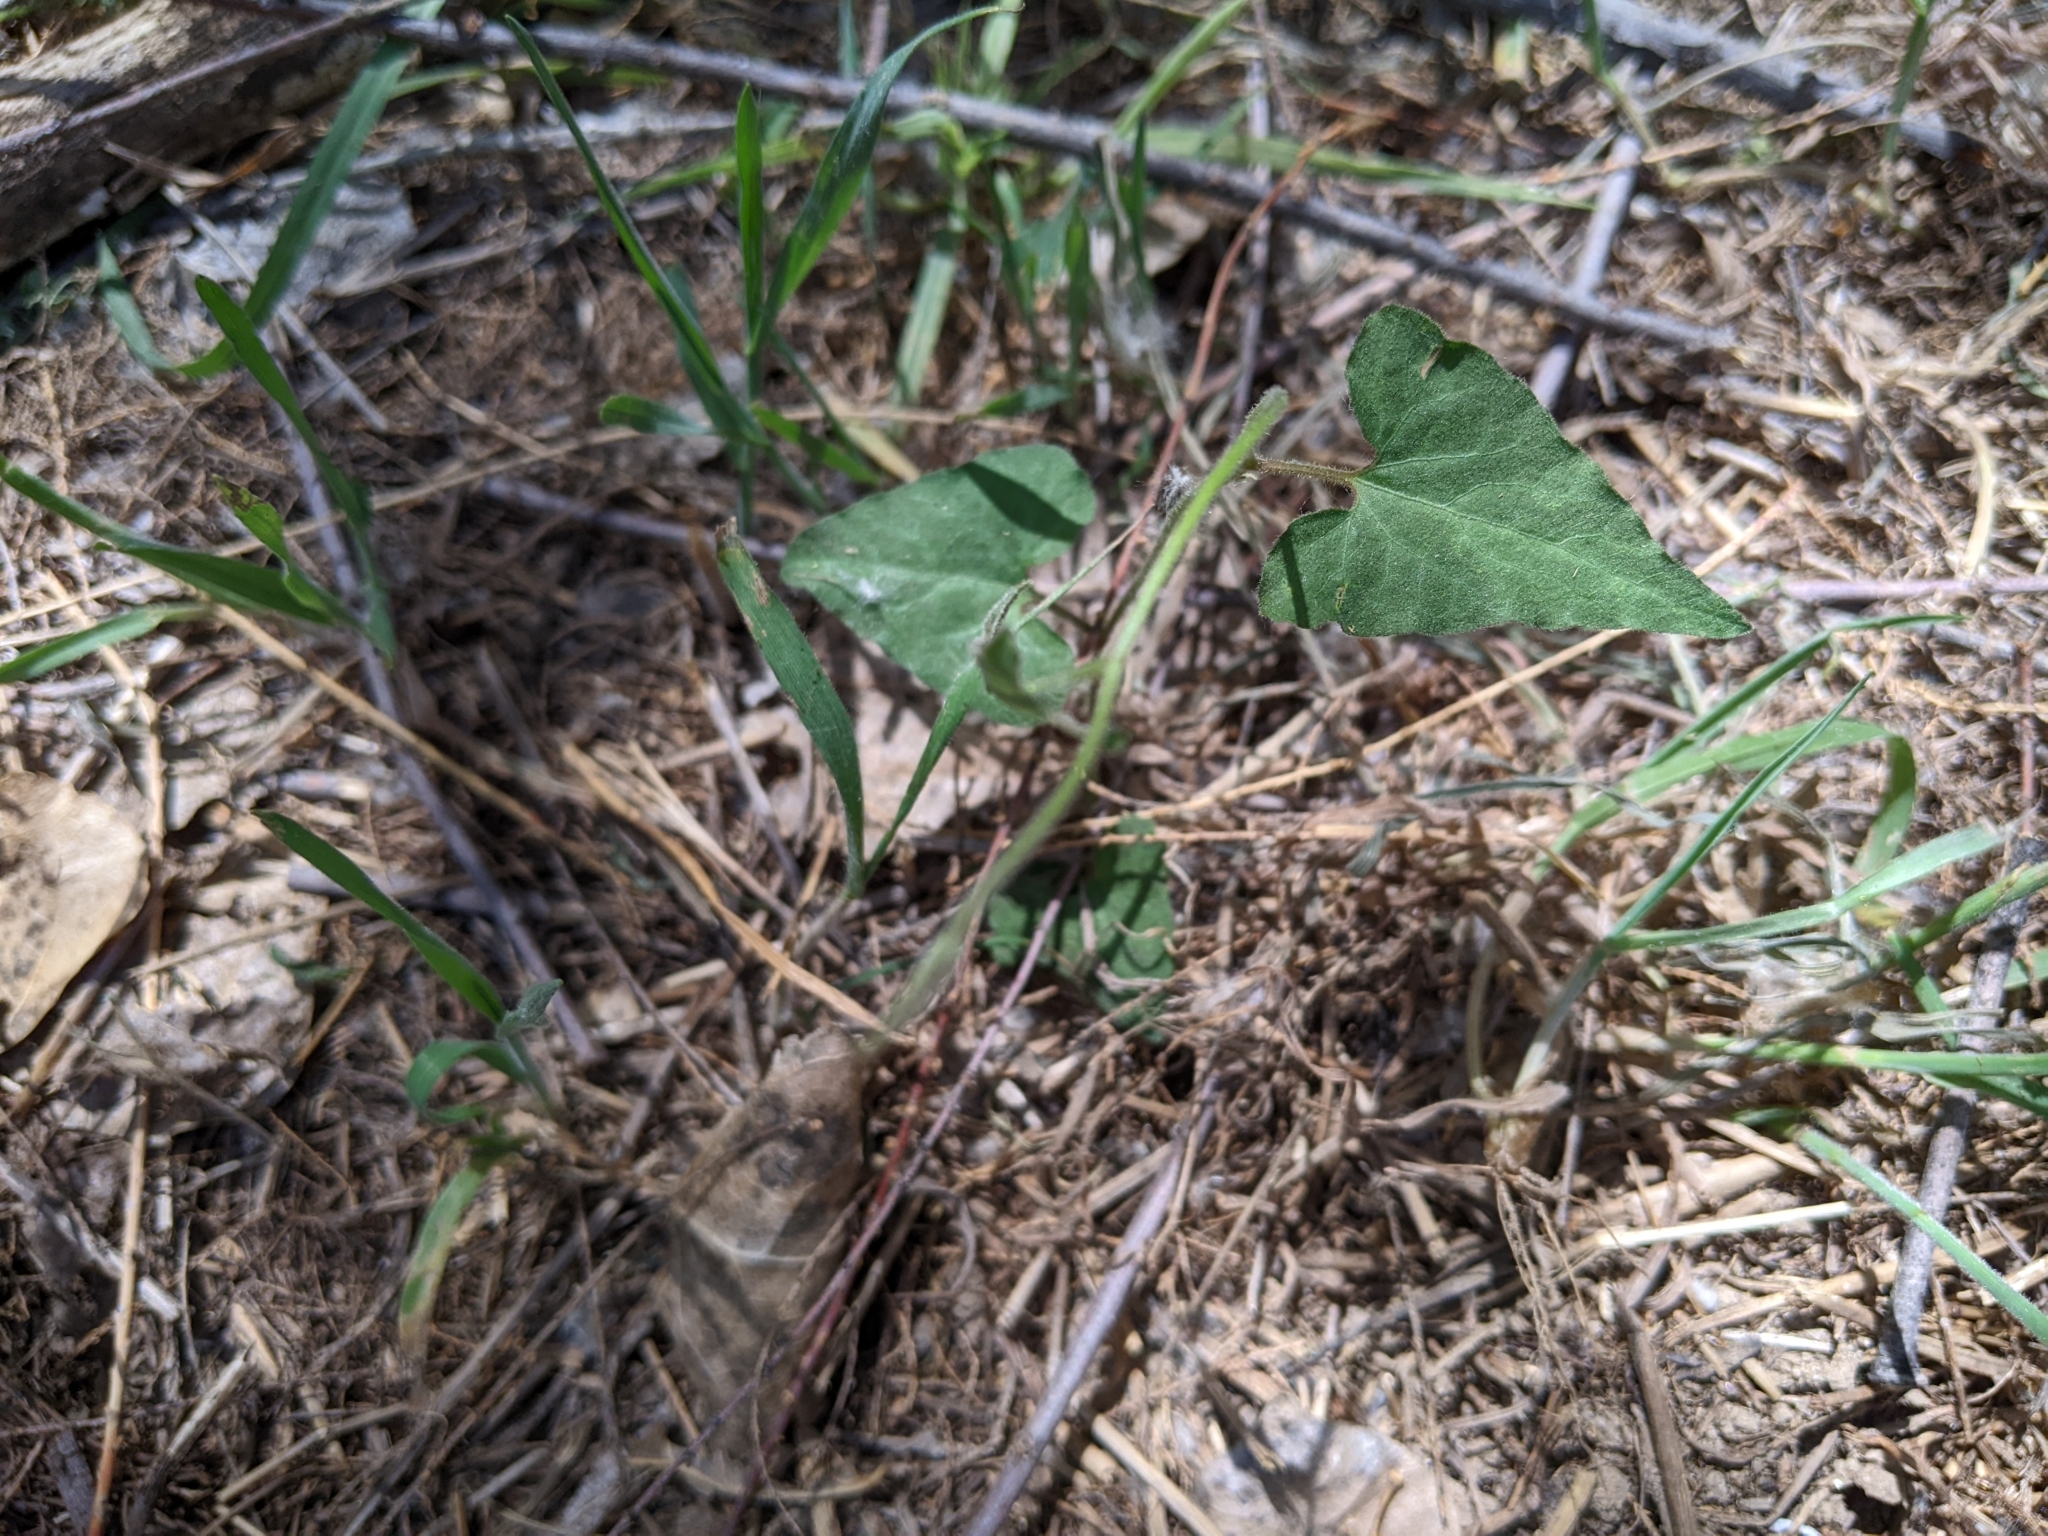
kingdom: Plantae
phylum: Tracheophyta
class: Magnoliopsida
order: Piperales
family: Aristolochiaceae
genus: Aristolochia
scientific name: Aristolochia watsonii
